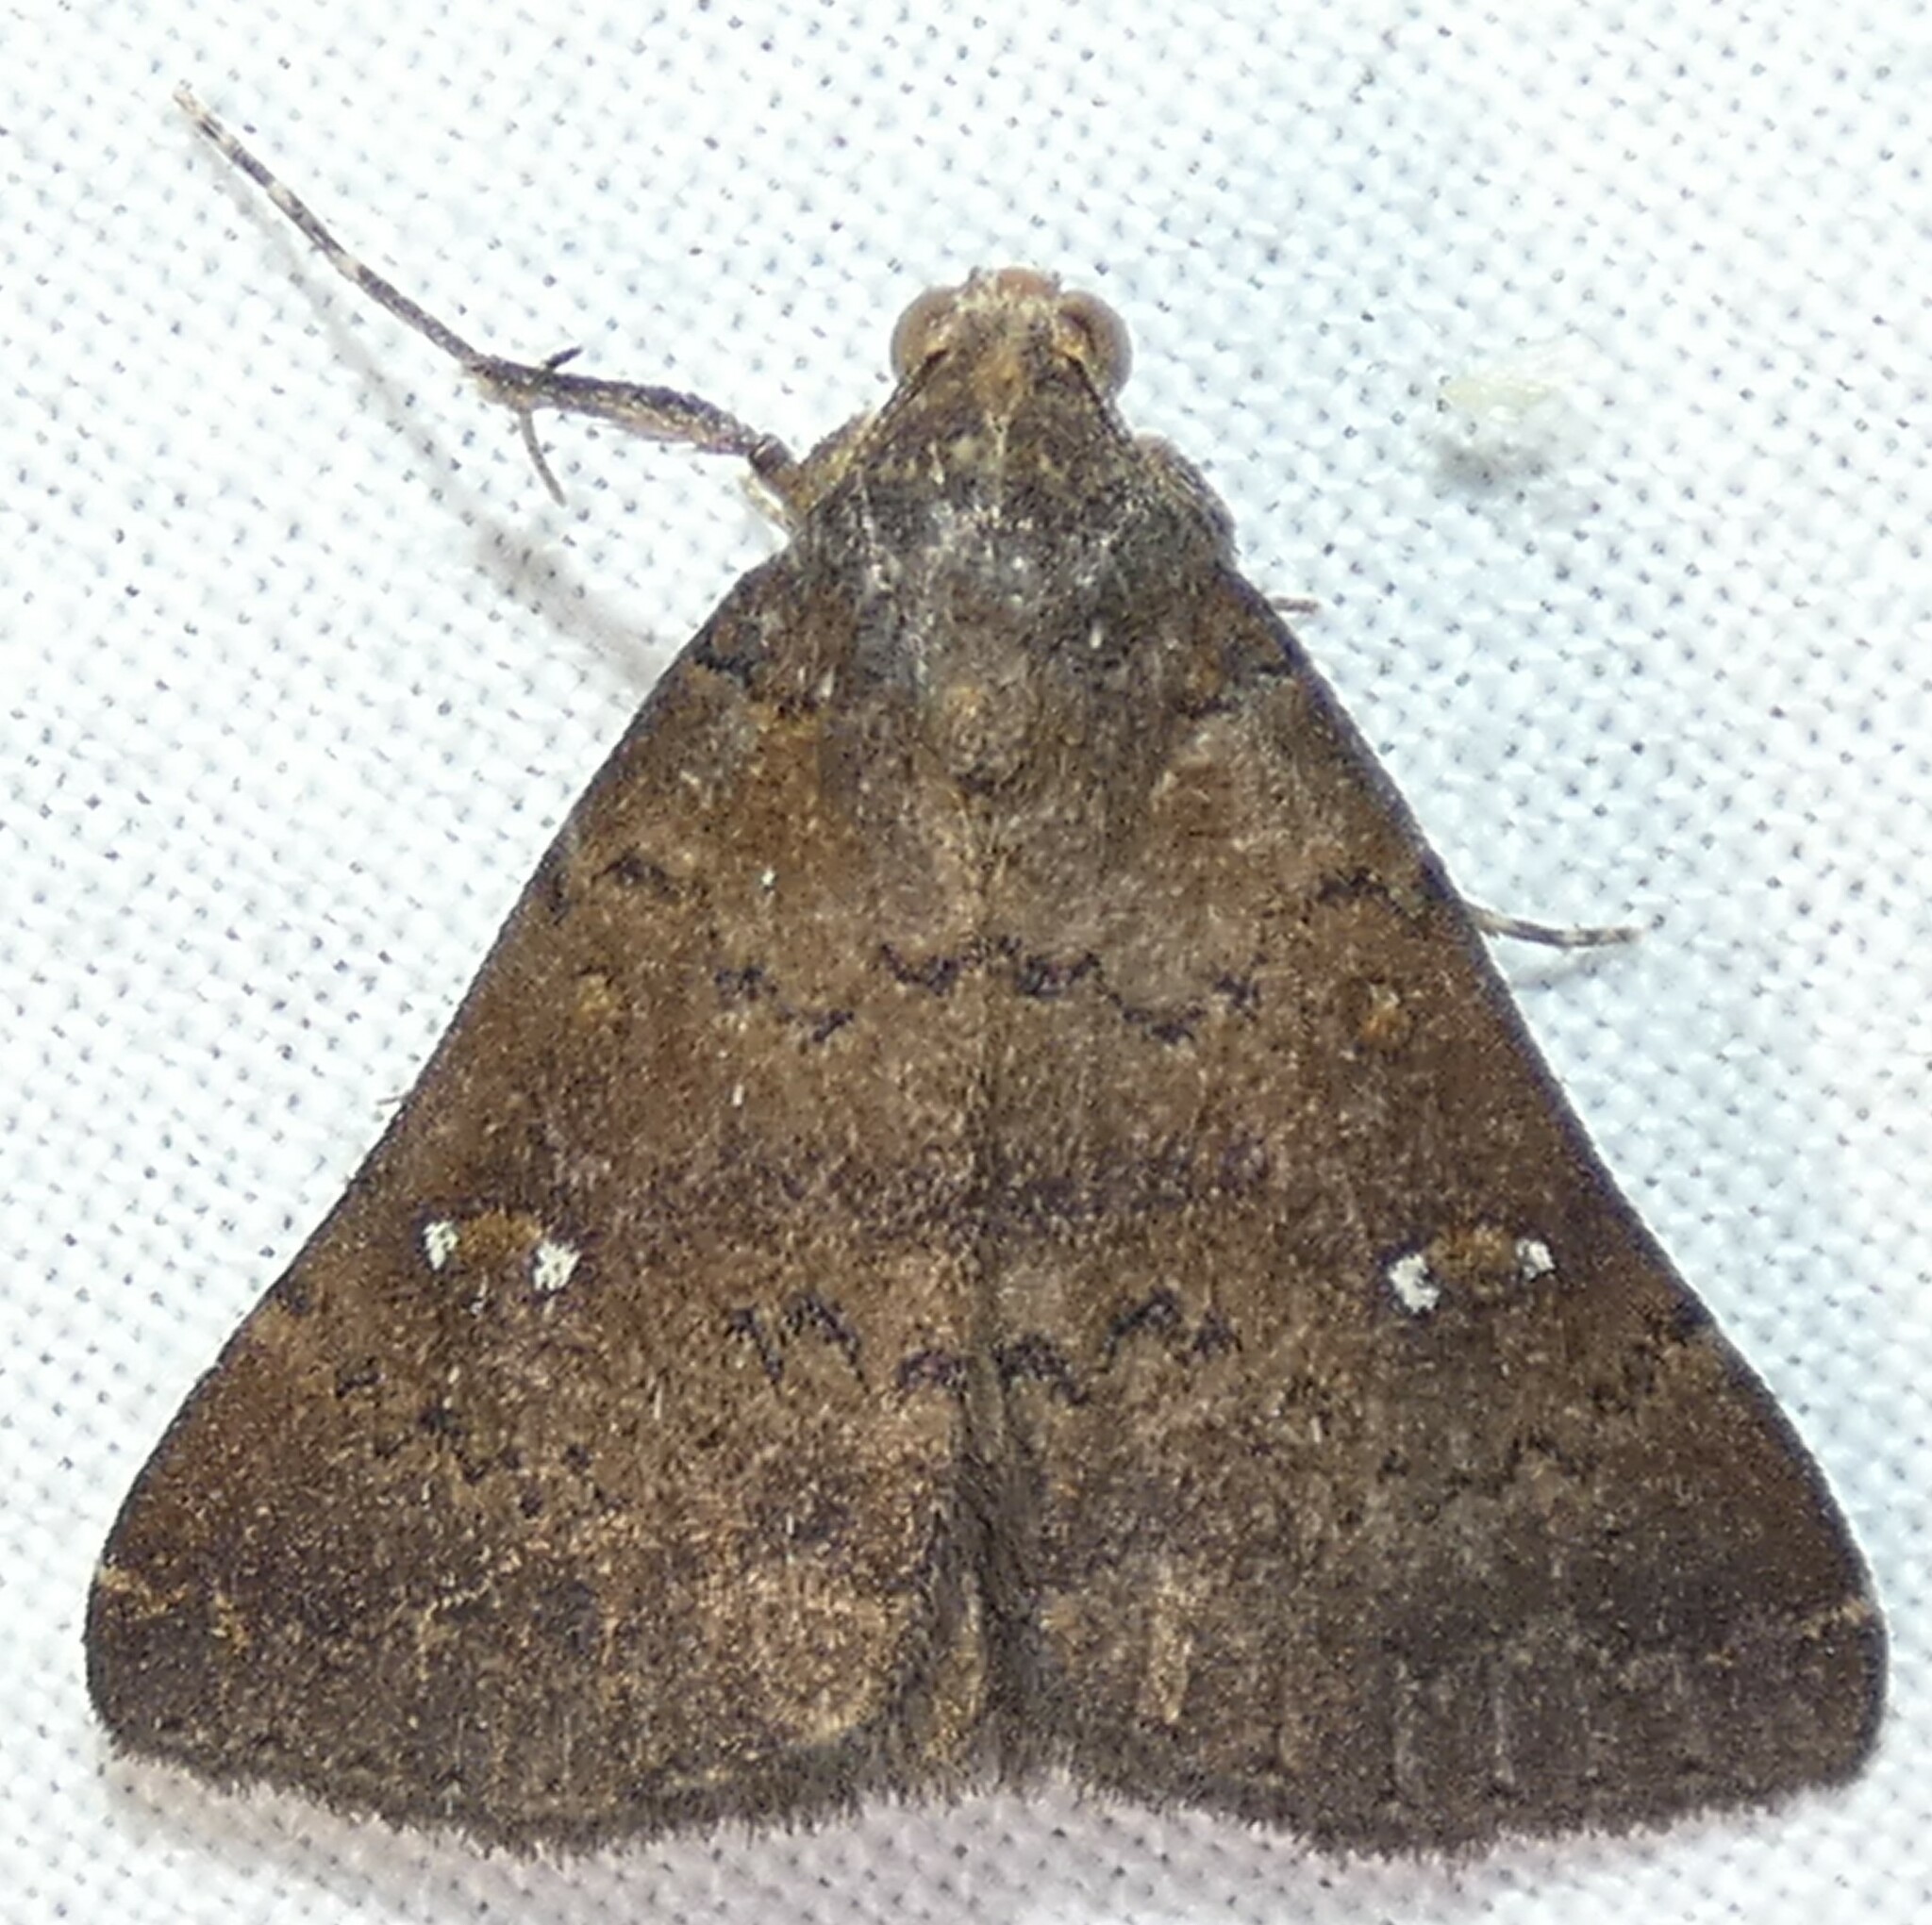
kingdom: Animalia
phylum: Arthropoda
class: Insecta
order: Lepidoptera
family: Erebidae
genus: Hypenula
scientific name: Hypenula cacuminalis
